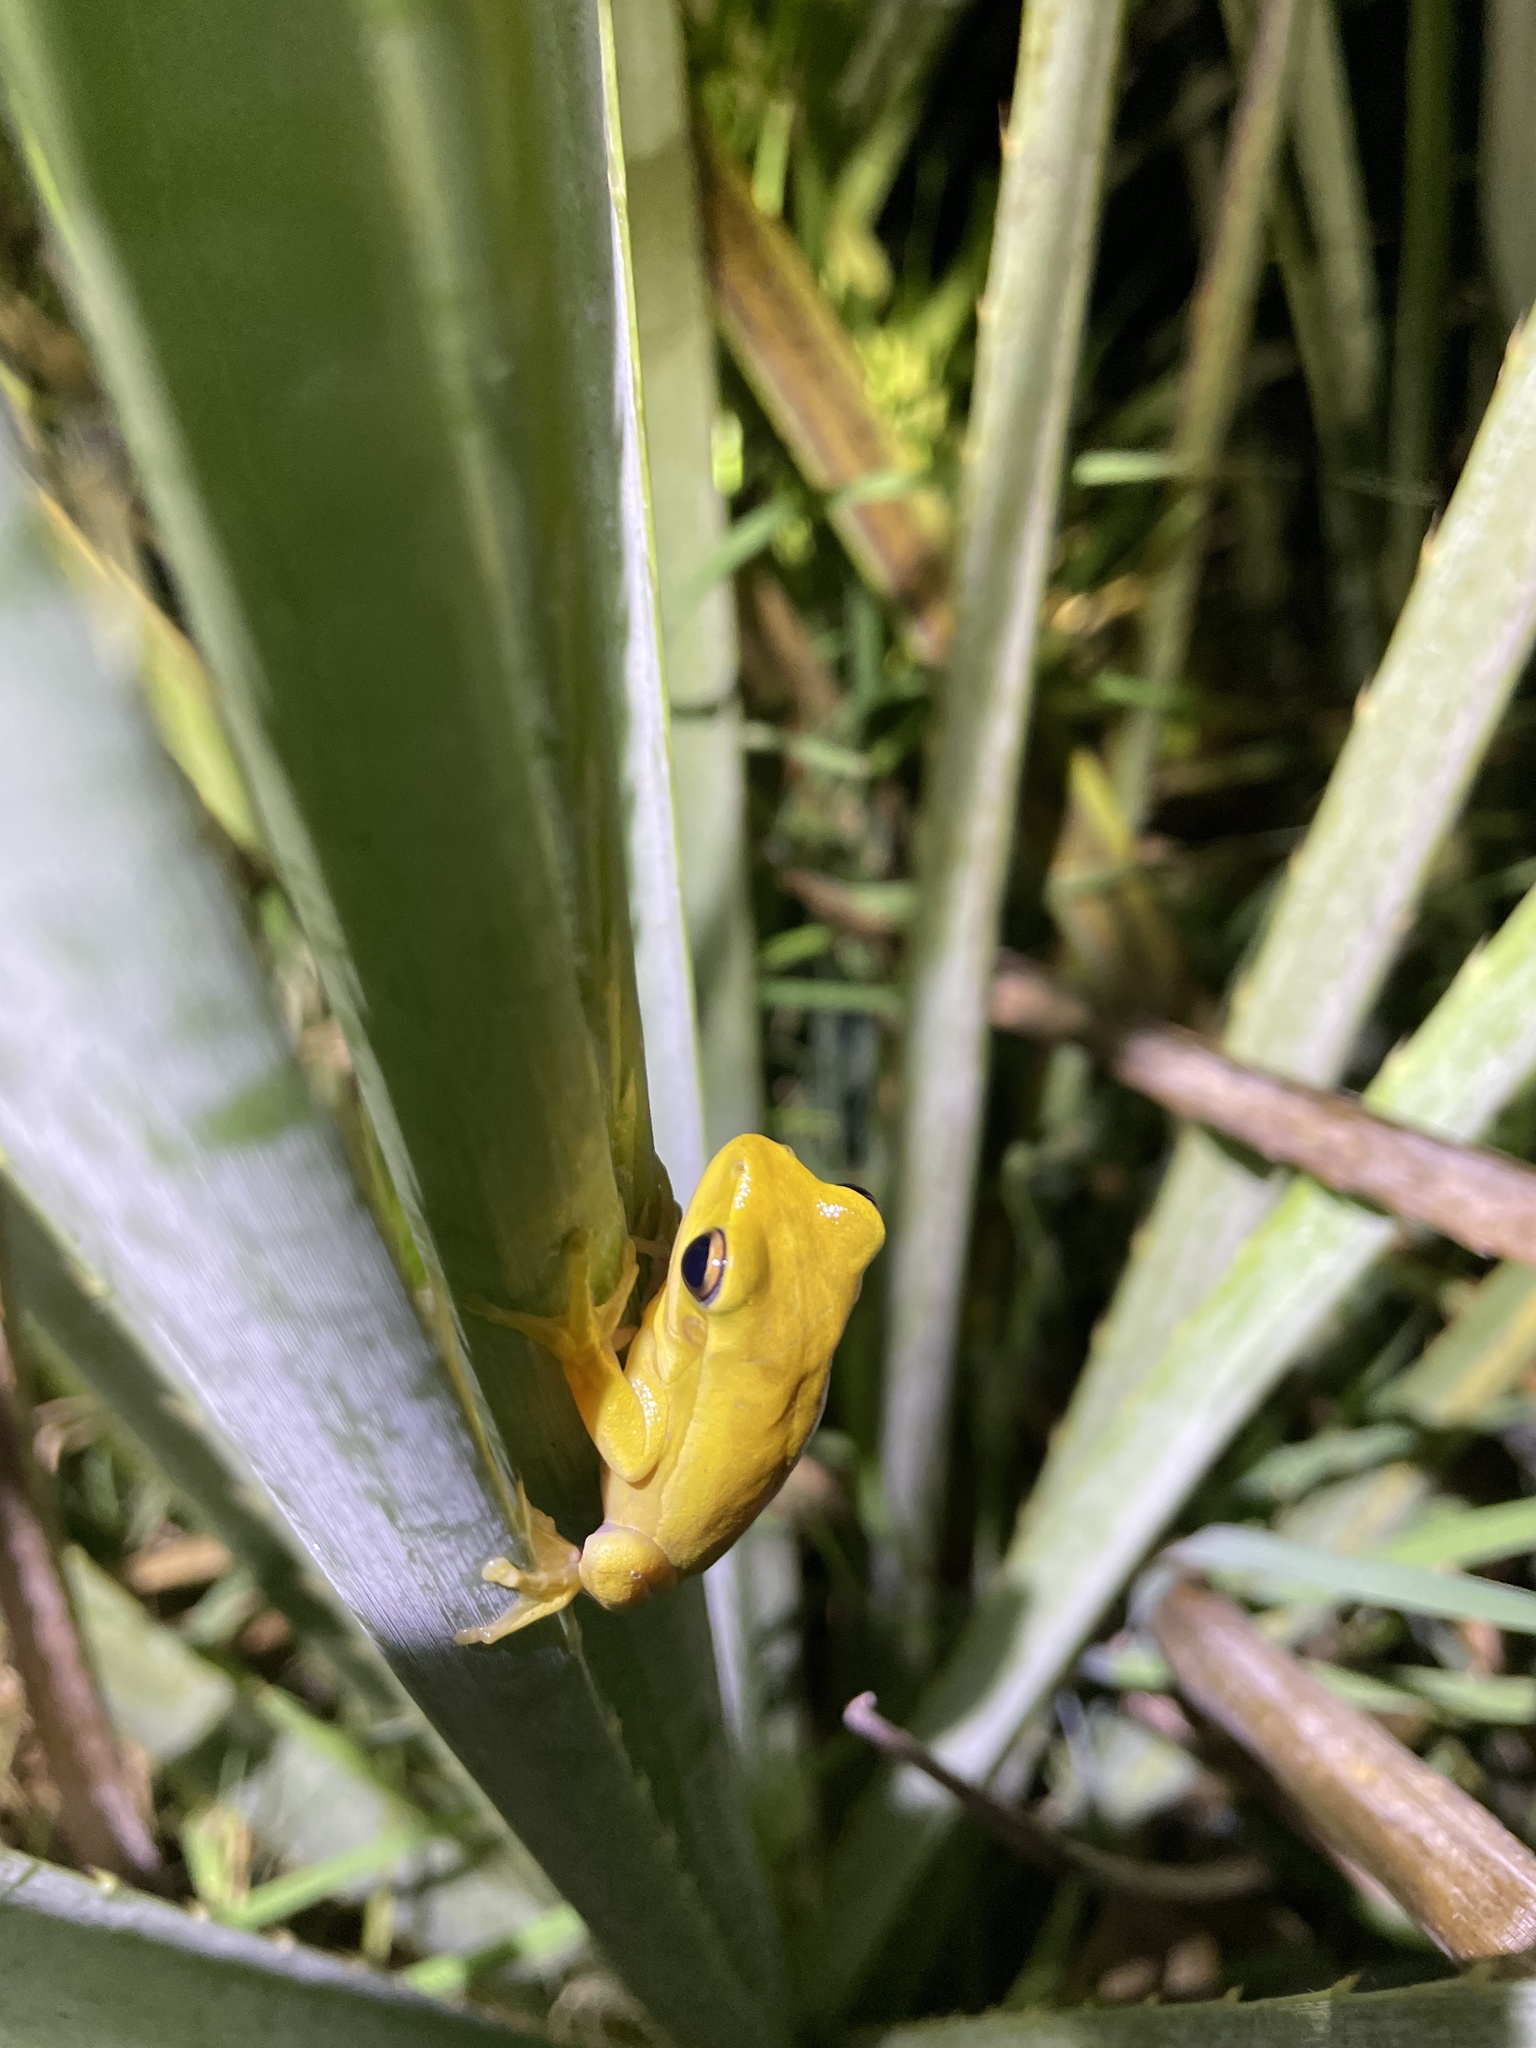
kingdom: Animalia
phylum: Chordata
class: Amphibia
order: Anura
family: Hylidae
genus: Boana
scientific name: Boana pulchella
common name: Montevideo treefrog
